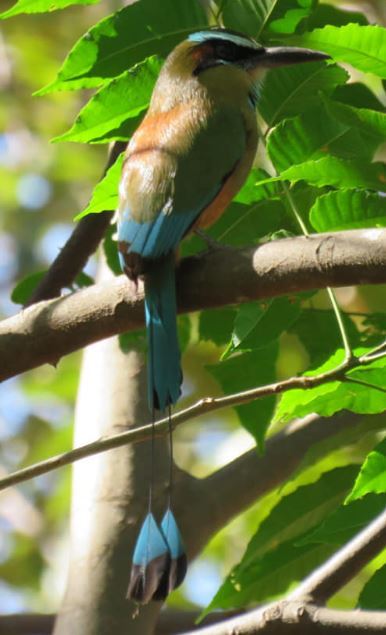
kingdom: Animalia
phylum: Chordata
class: Aves
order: Coraciiformes
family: Momotidae
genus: Eumomota
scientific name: Eumomota superciliosa
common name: Turquoise-browed motmot
